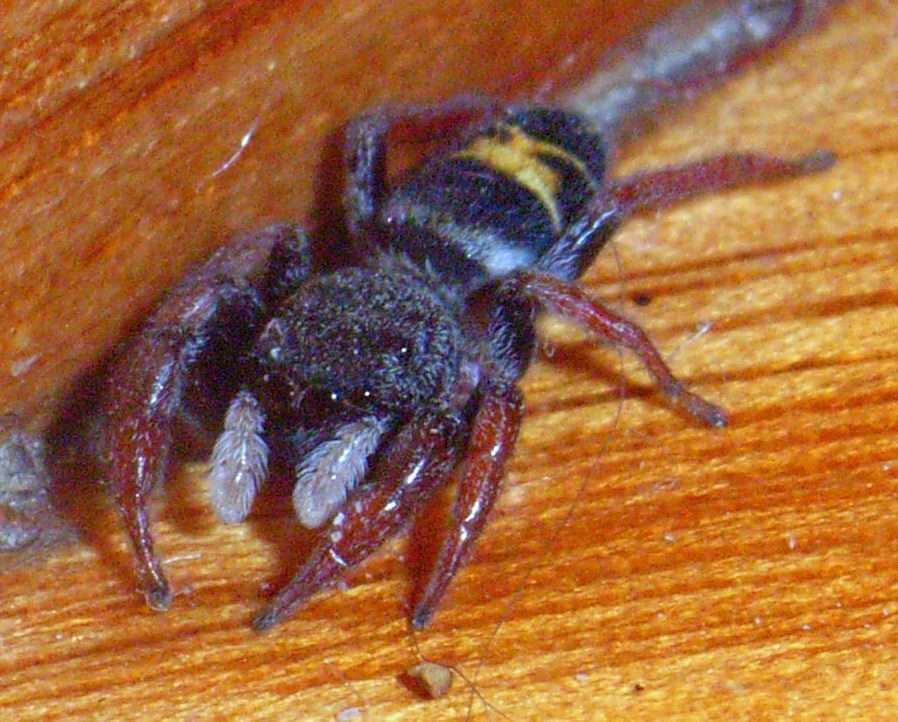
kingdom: Animalia
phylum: Arthropoda
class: Arachnida
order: Araneae
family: Salticidae
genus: Apricia
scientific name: Apricia jovialis
